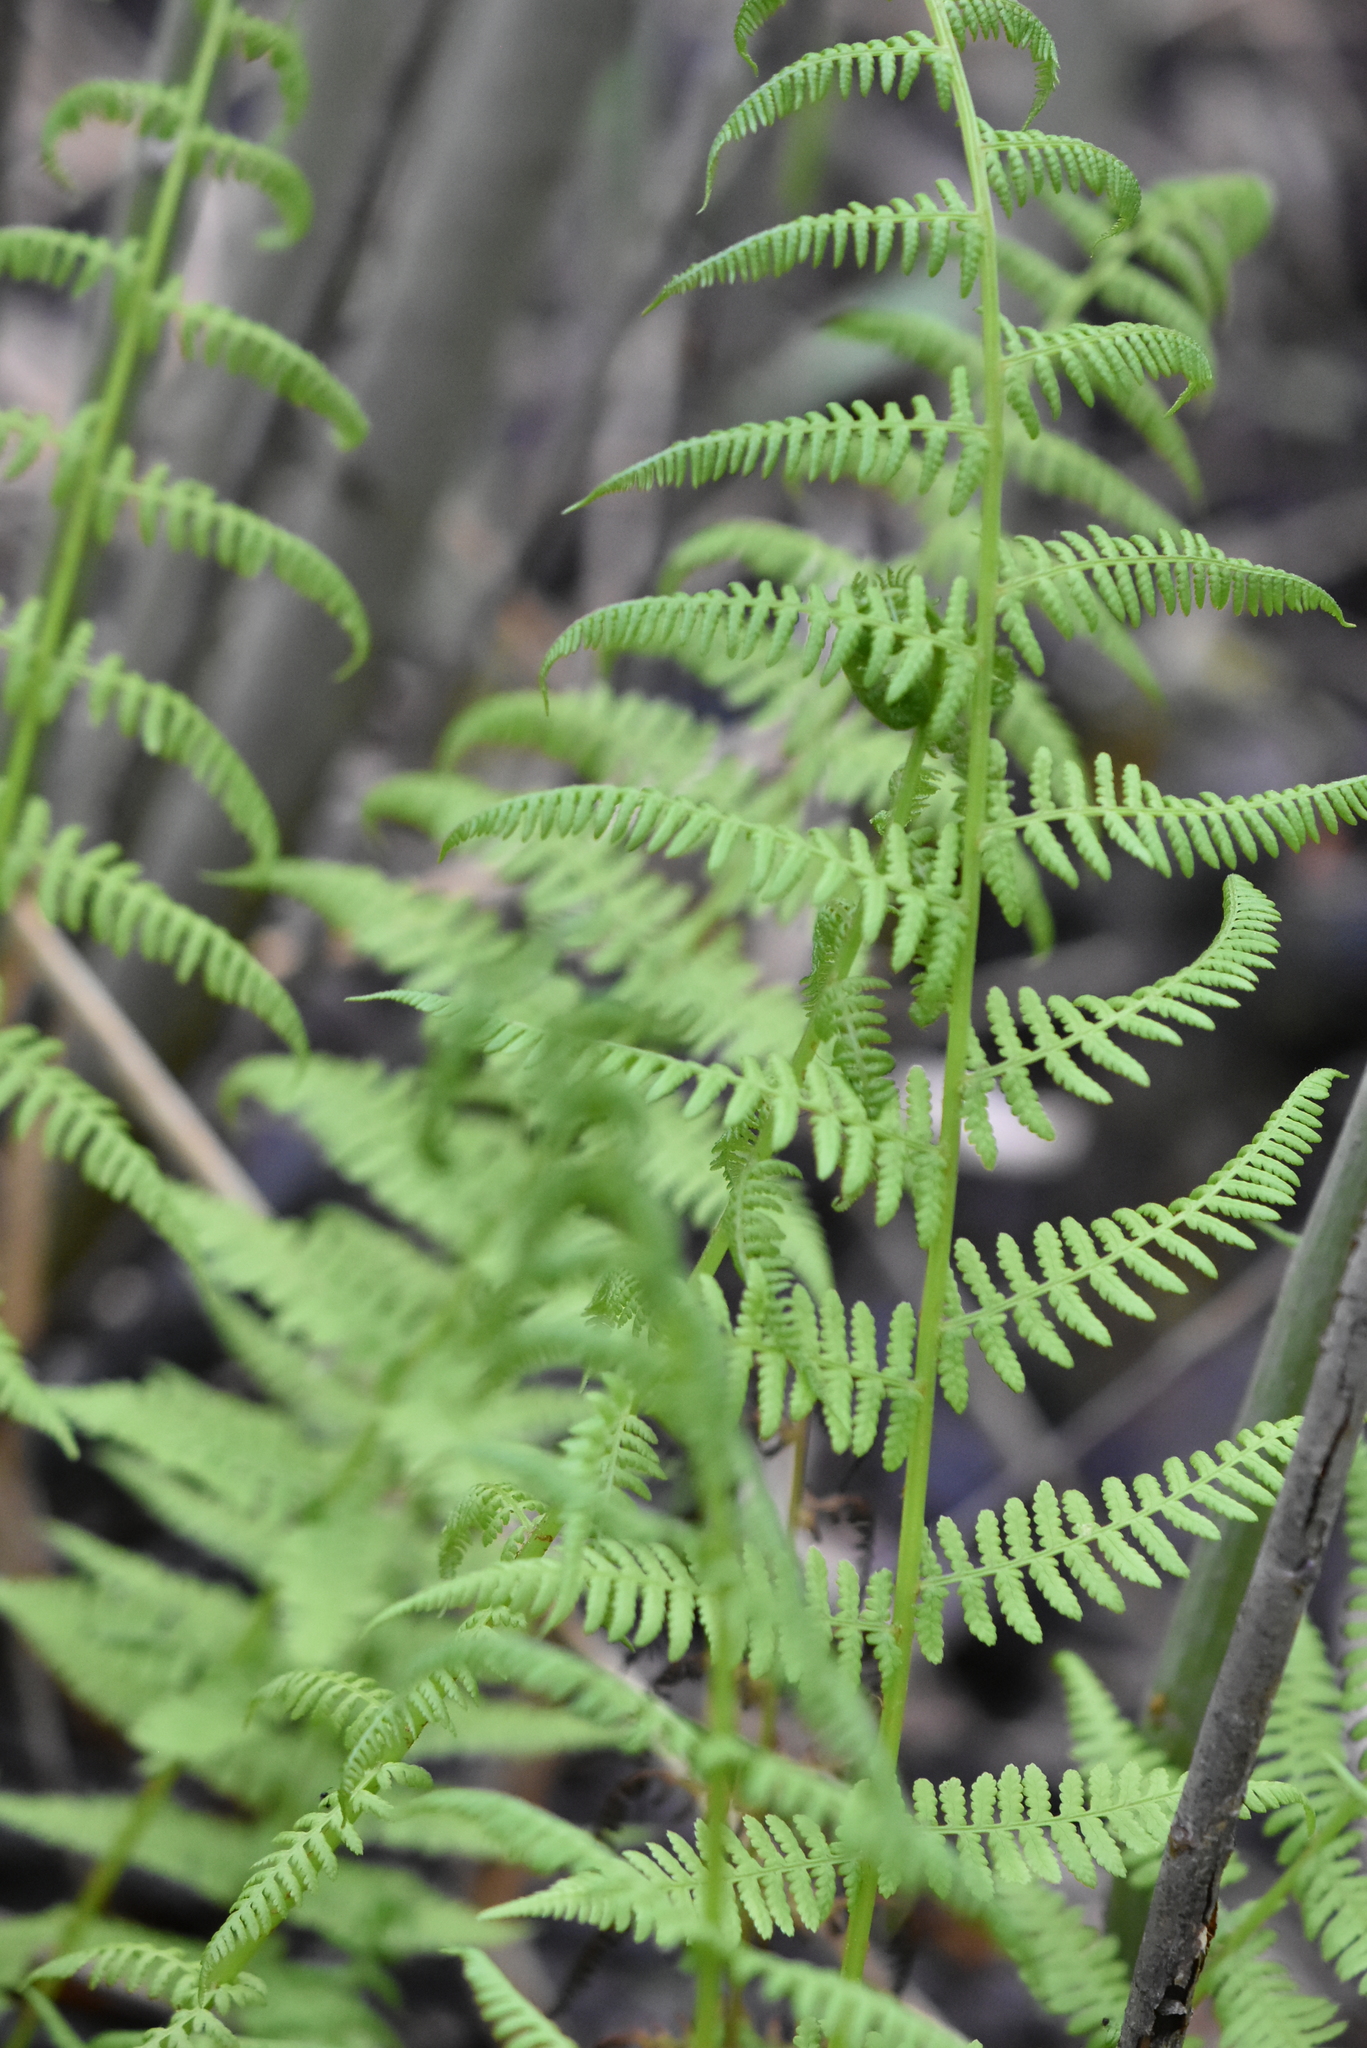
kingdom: Plantae
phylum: Tracheophyta
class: Polypodiopsida
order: Polypodiales
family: Athyriaceae
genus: Athyrium
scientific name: Athyrium filix-femina
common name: Lady fern
